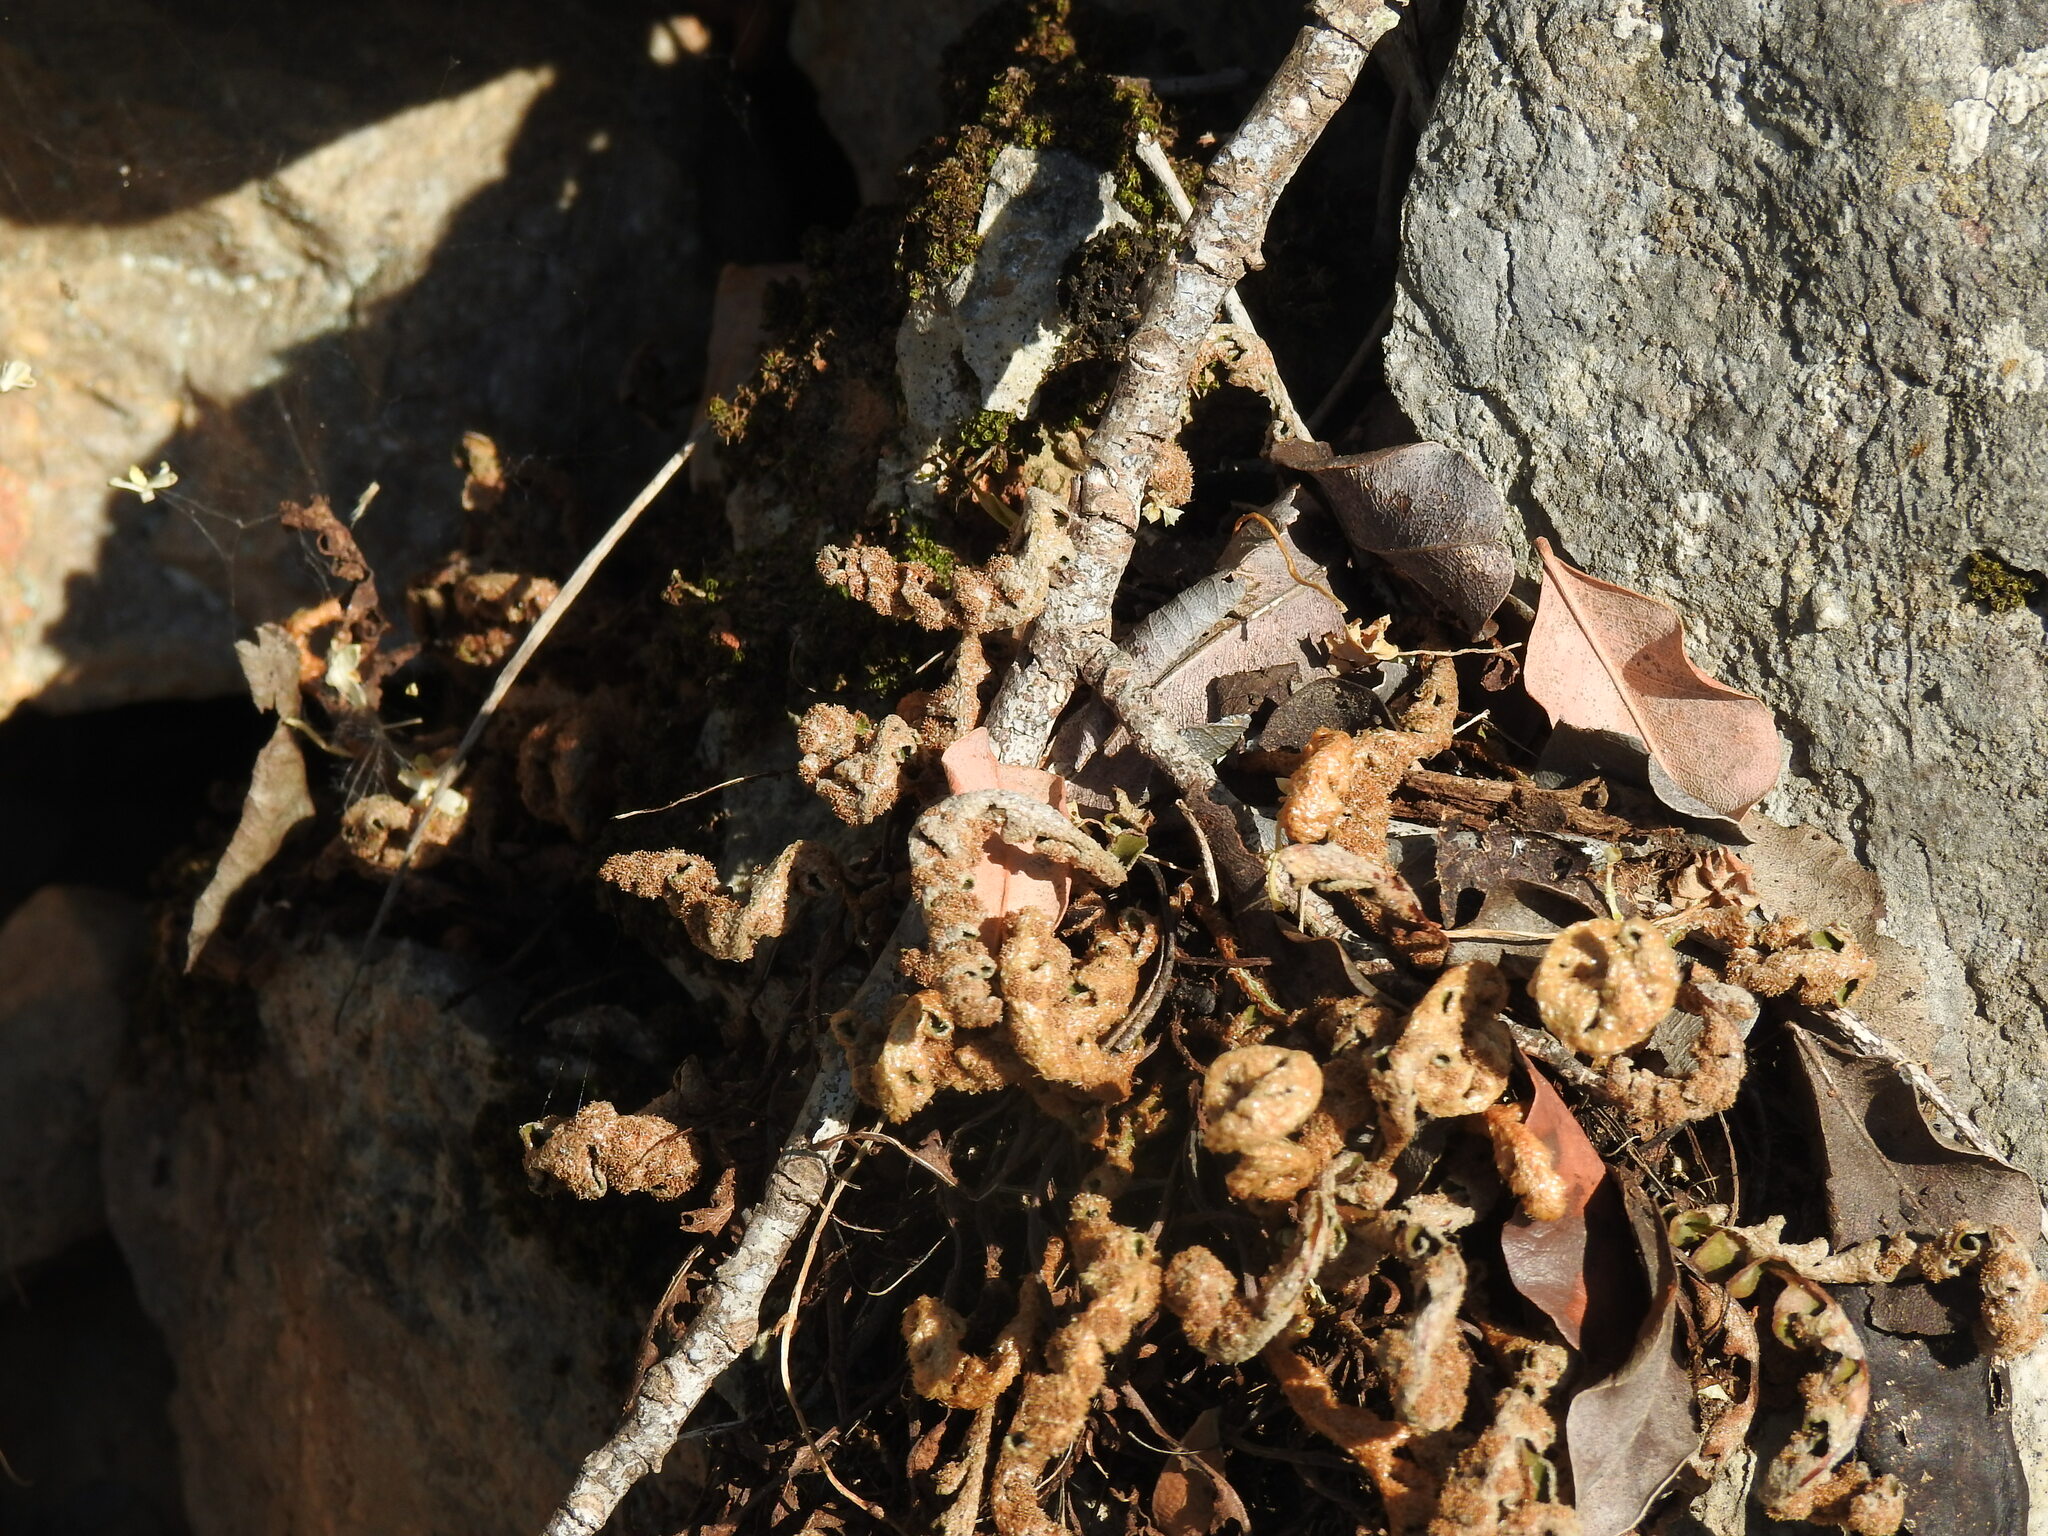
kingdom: Plantae
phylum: Tracheophyta
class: Polypodiopsida
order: Polypodiales
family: Aspleniaceae
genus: Asplenium
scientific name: Asplenium ceterach
